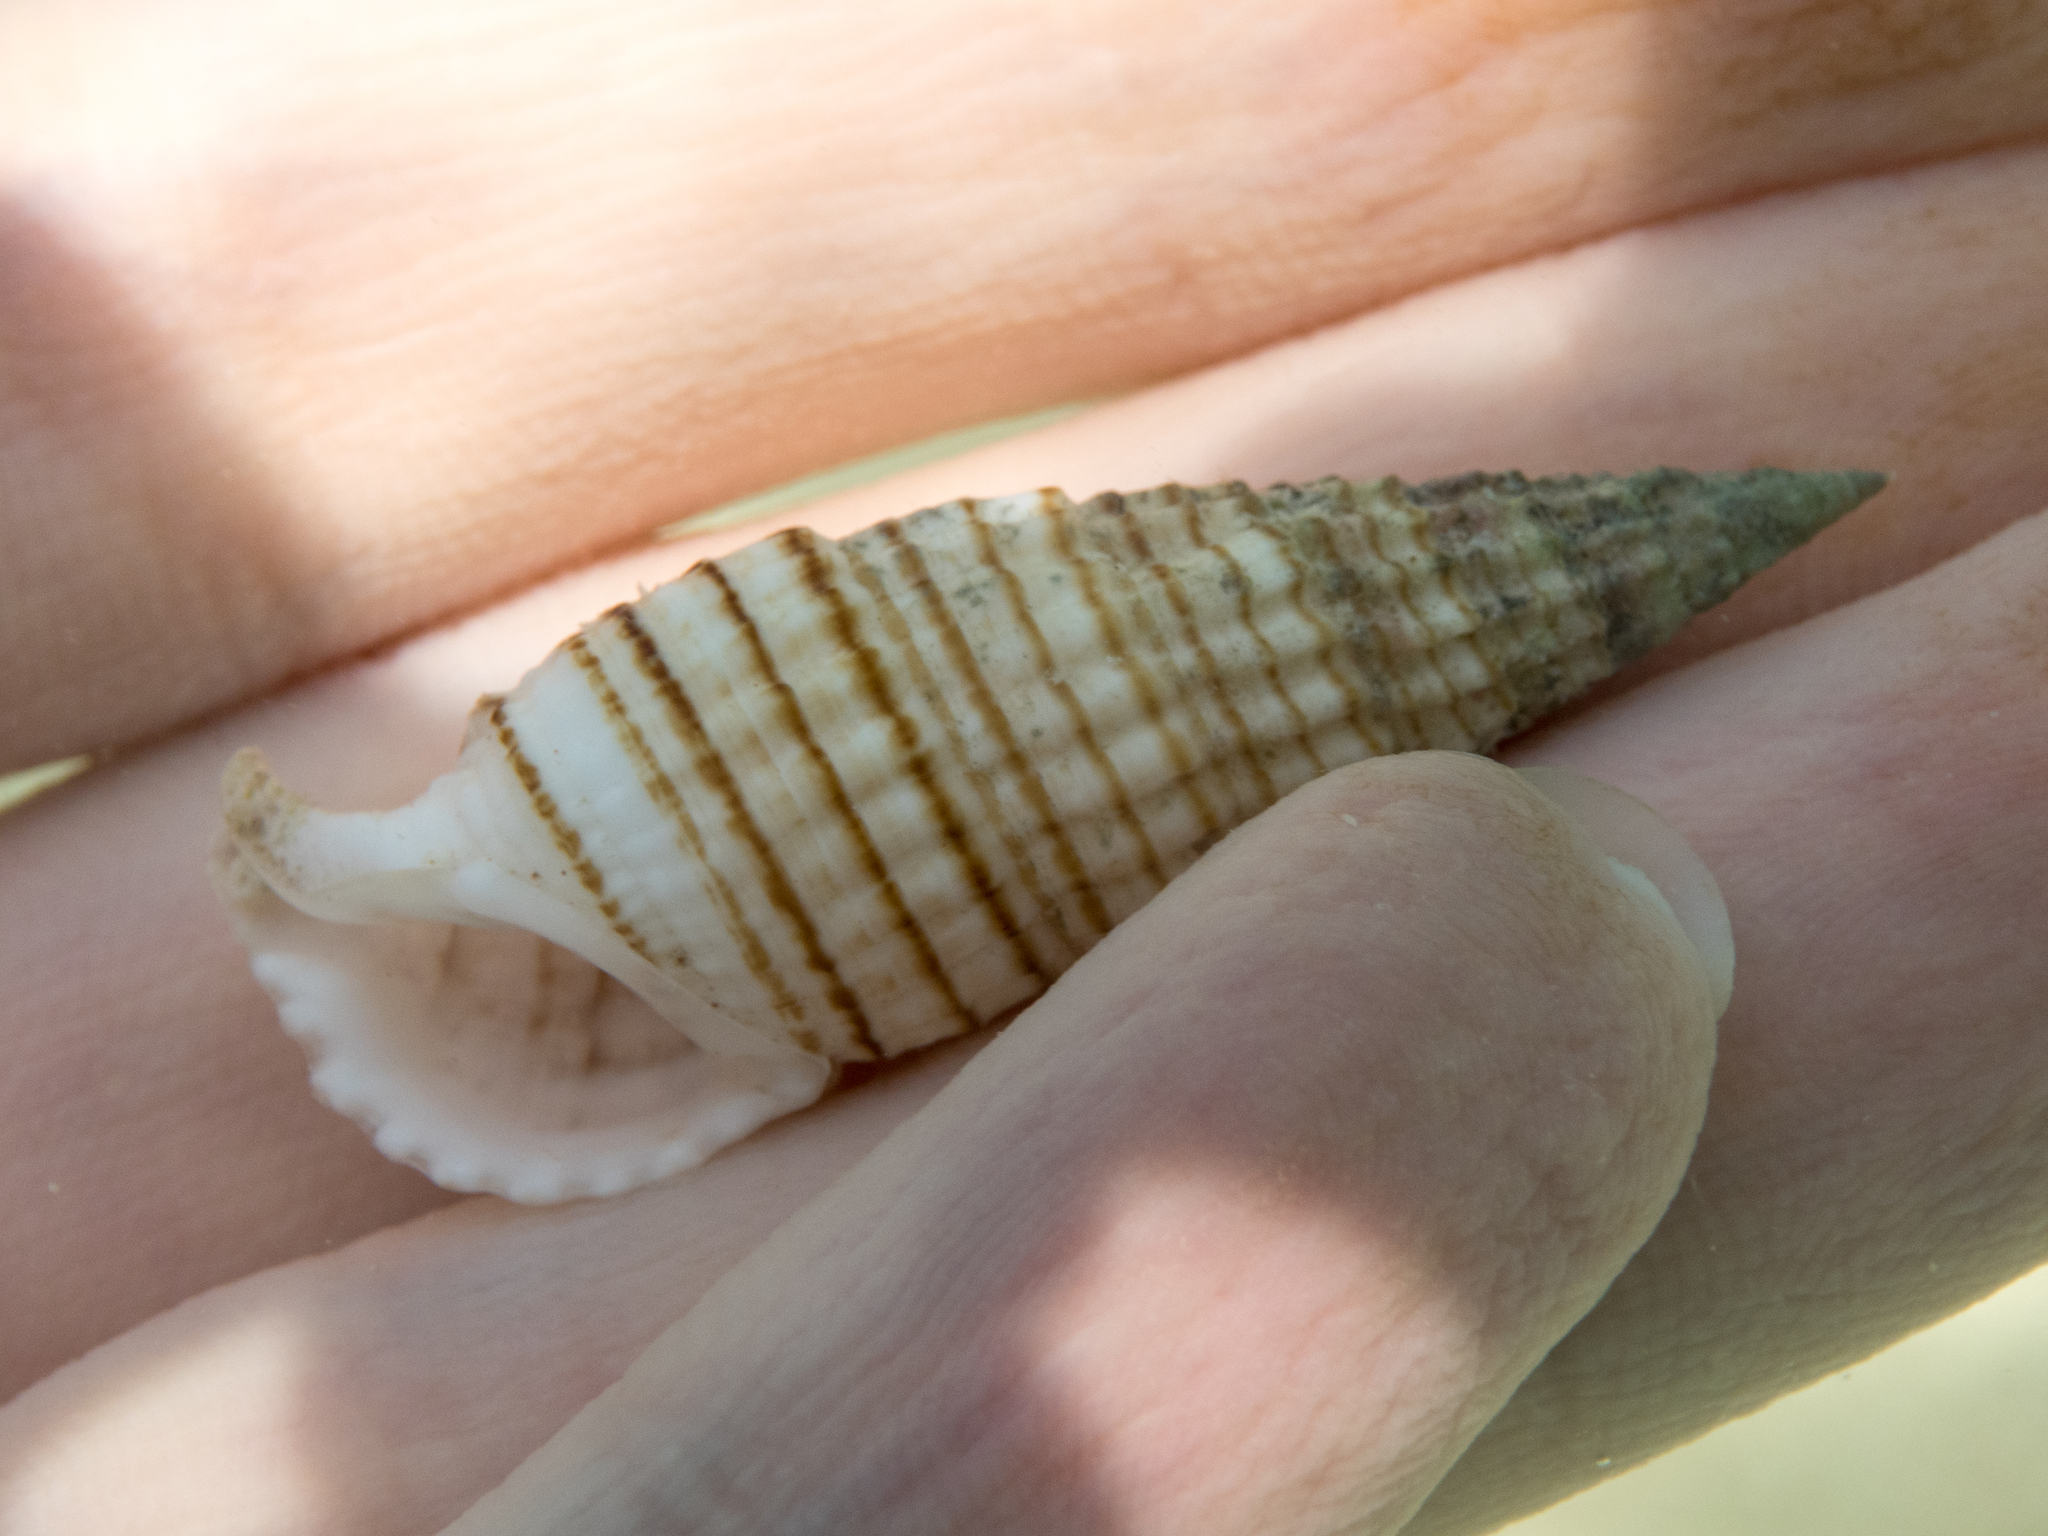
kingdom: Animalia
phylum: Mollusca
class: Gastropoda
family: Cerithiidae
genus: Rhinoclavis
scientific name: Rhinoclavis aspera
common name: Rough horn
